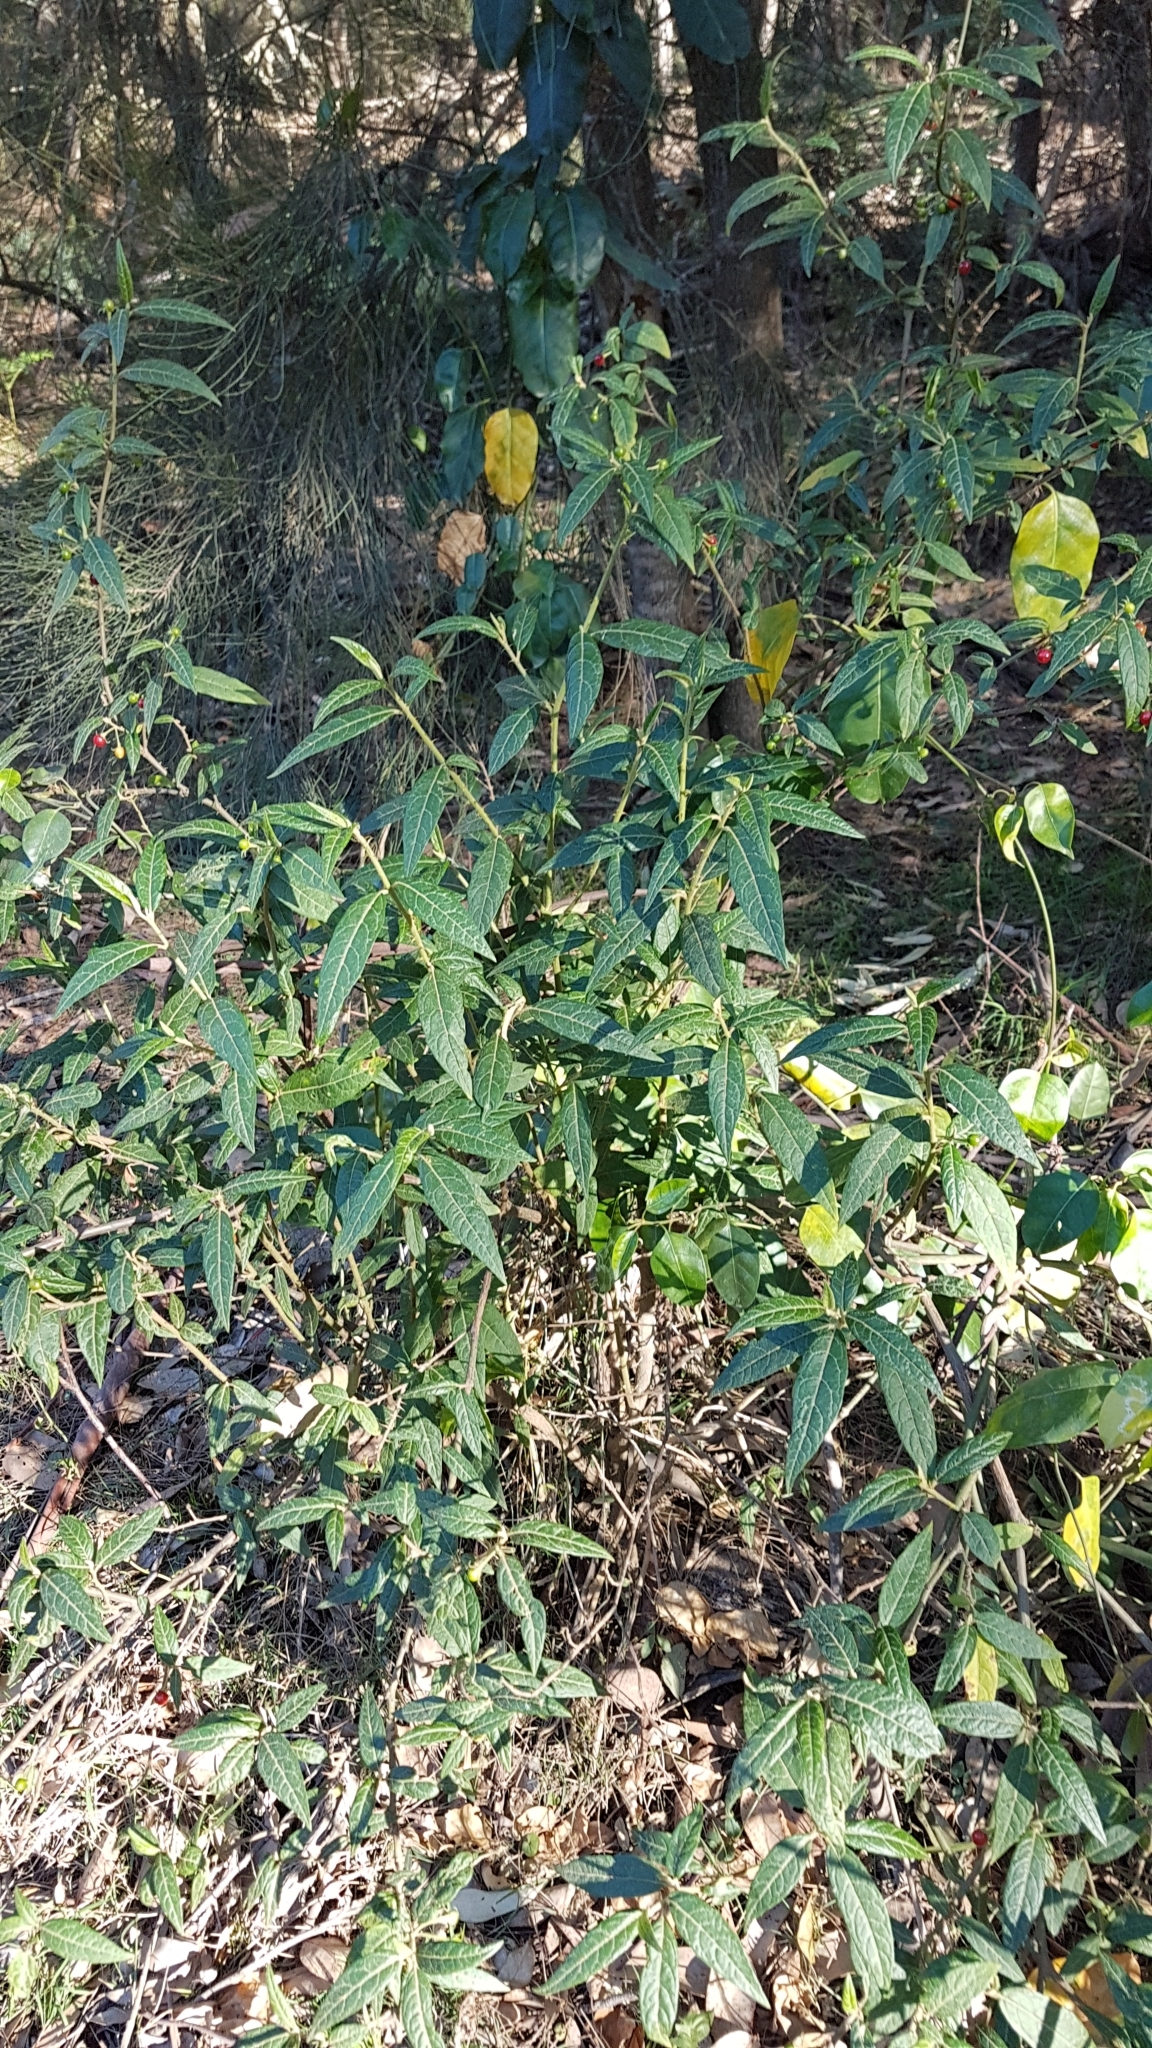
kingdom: Plantae
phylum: Tracheophyta
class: Magnoliopsida
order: Solanales
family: Solanaceae
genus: Solanum
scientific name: Solanum stelligerum
